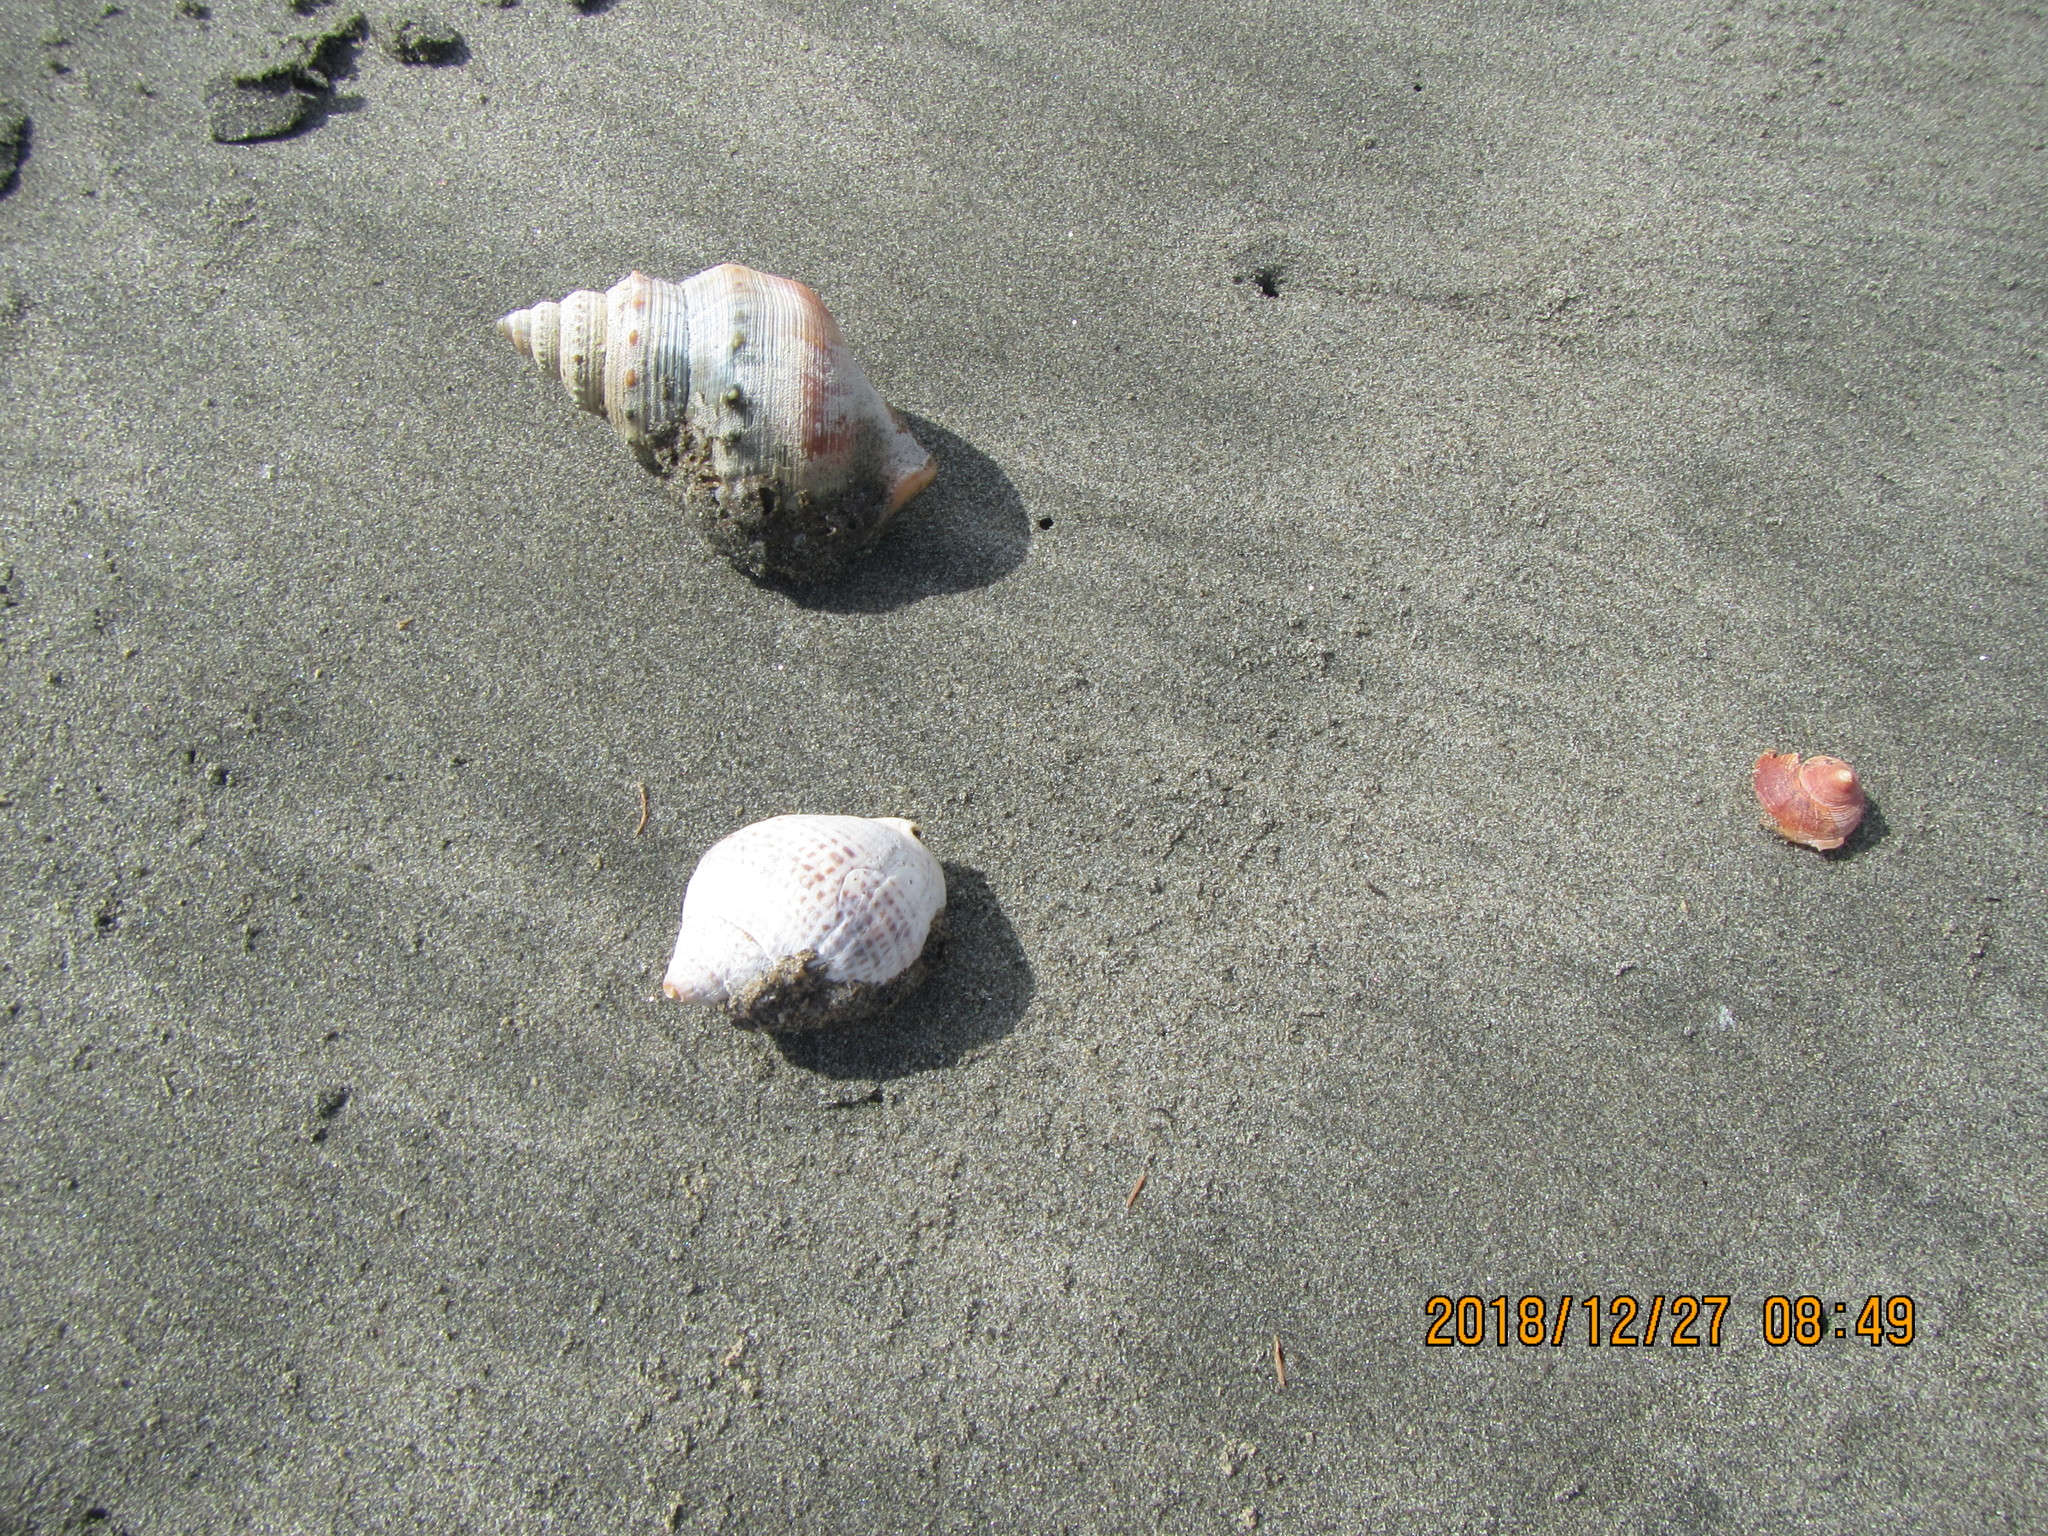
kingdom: Animalia
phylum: Mollusca
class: Gastropoda
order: Neogastropoda
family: Cominellidae
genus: Cominella
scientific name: Cominella adspersa
